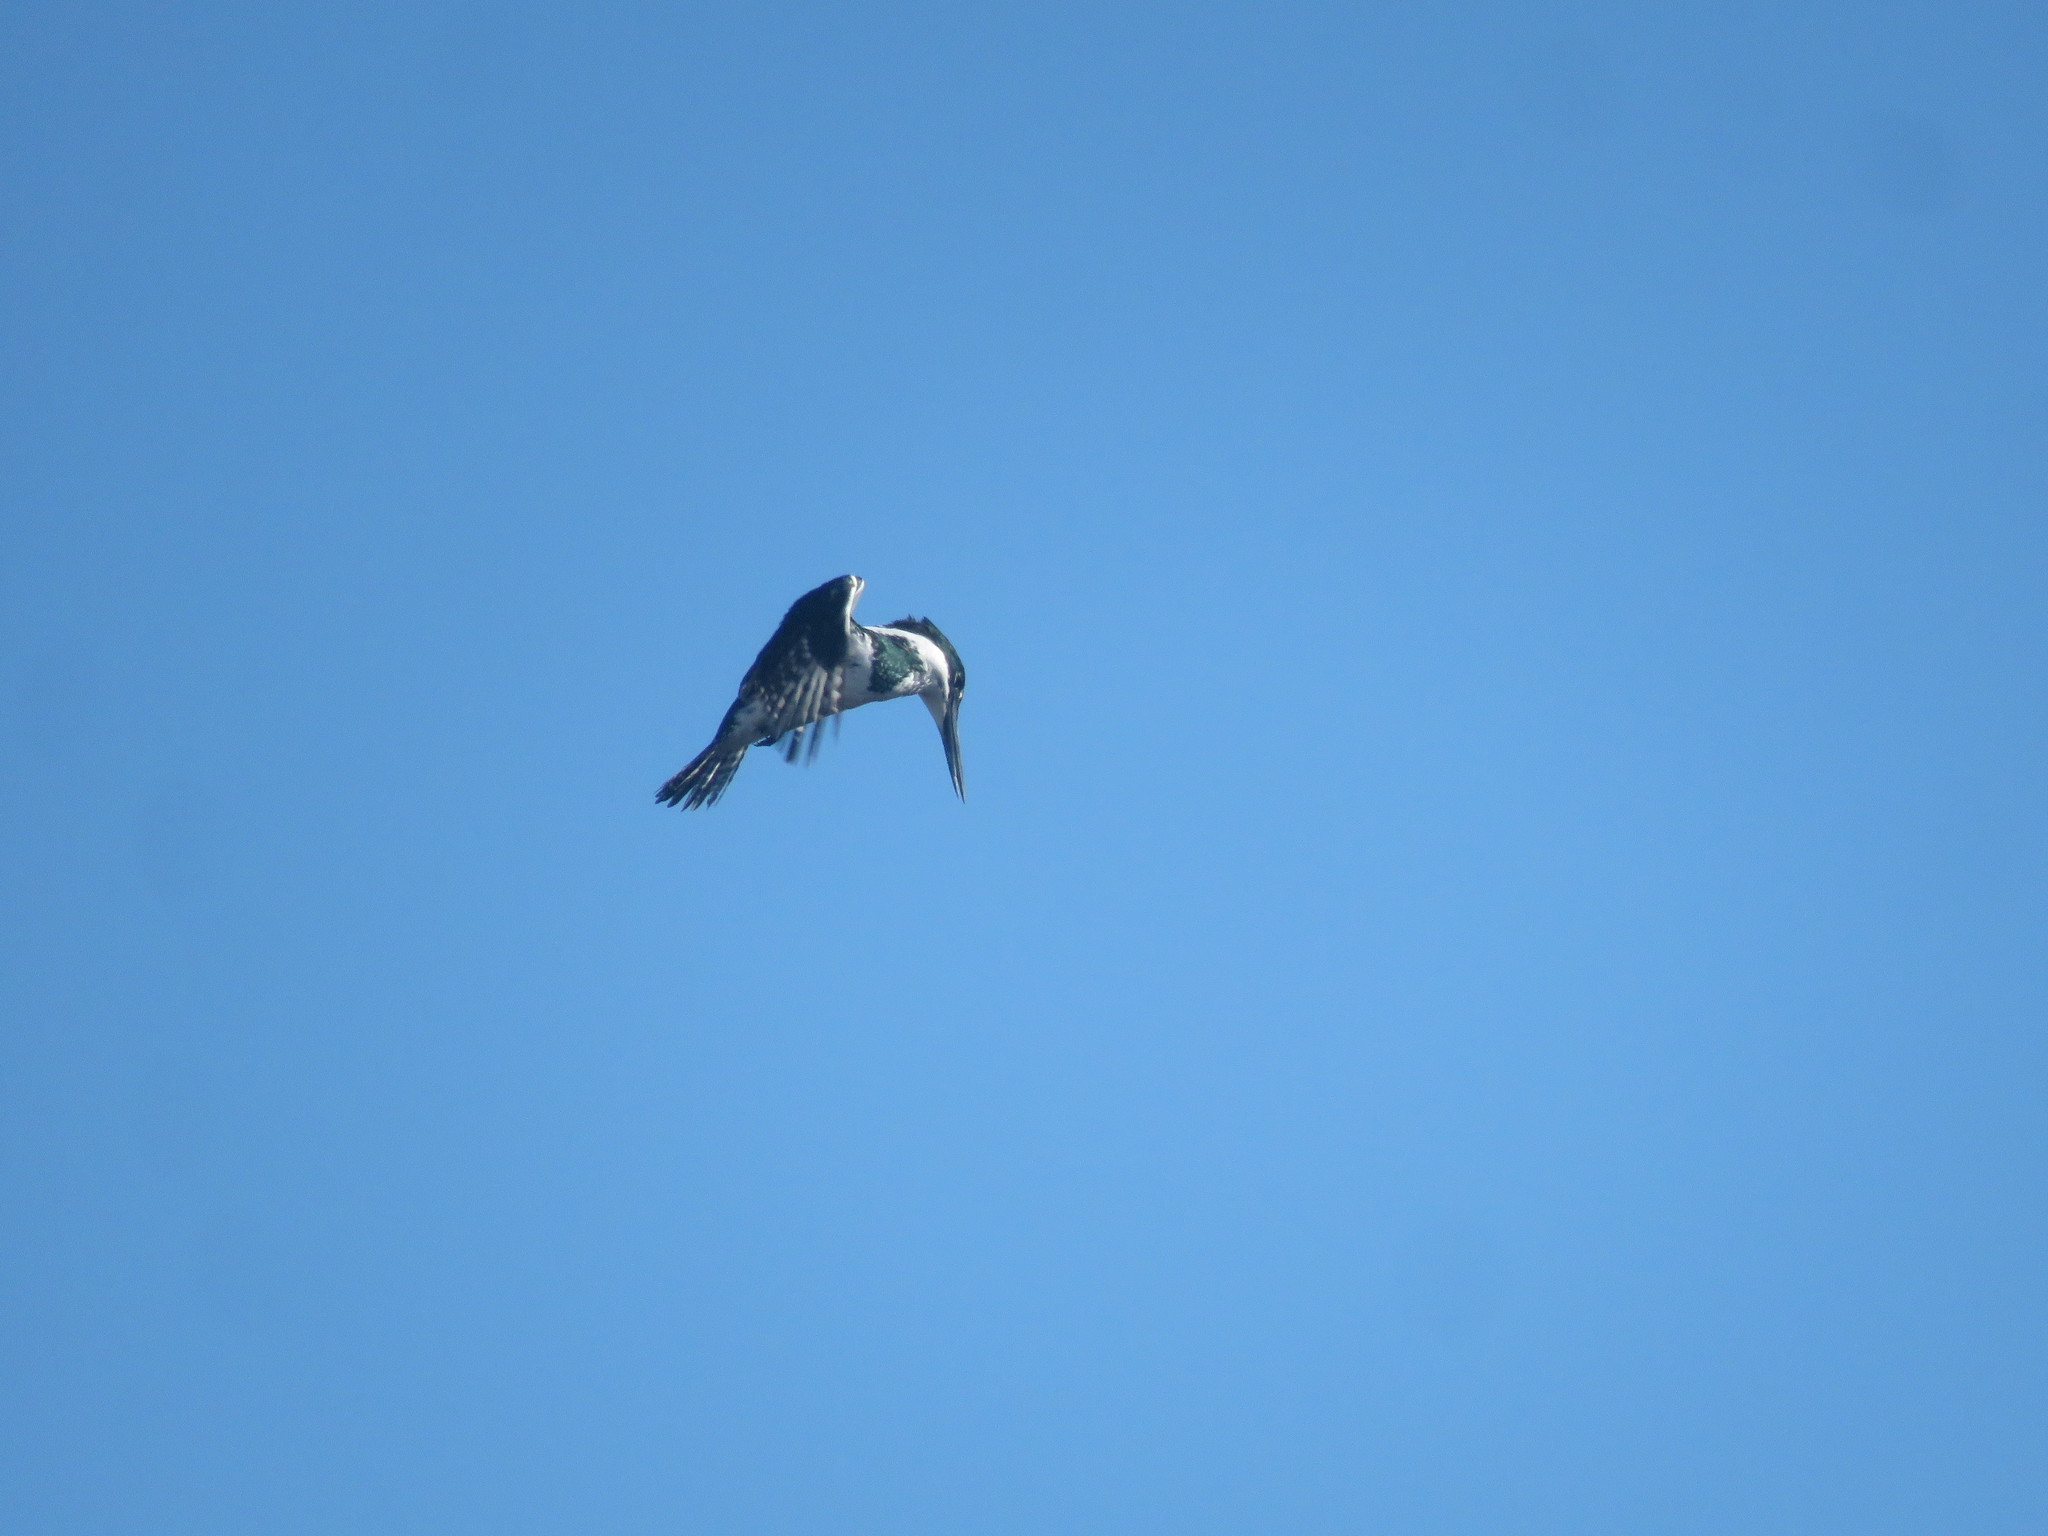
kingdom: Animalia
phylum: Chordata
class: Aves
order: Coraciiformes
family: Alcedinidae
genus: Chloroceryle
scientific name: Chloroceryle amazona
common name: Amazon kingfisher
